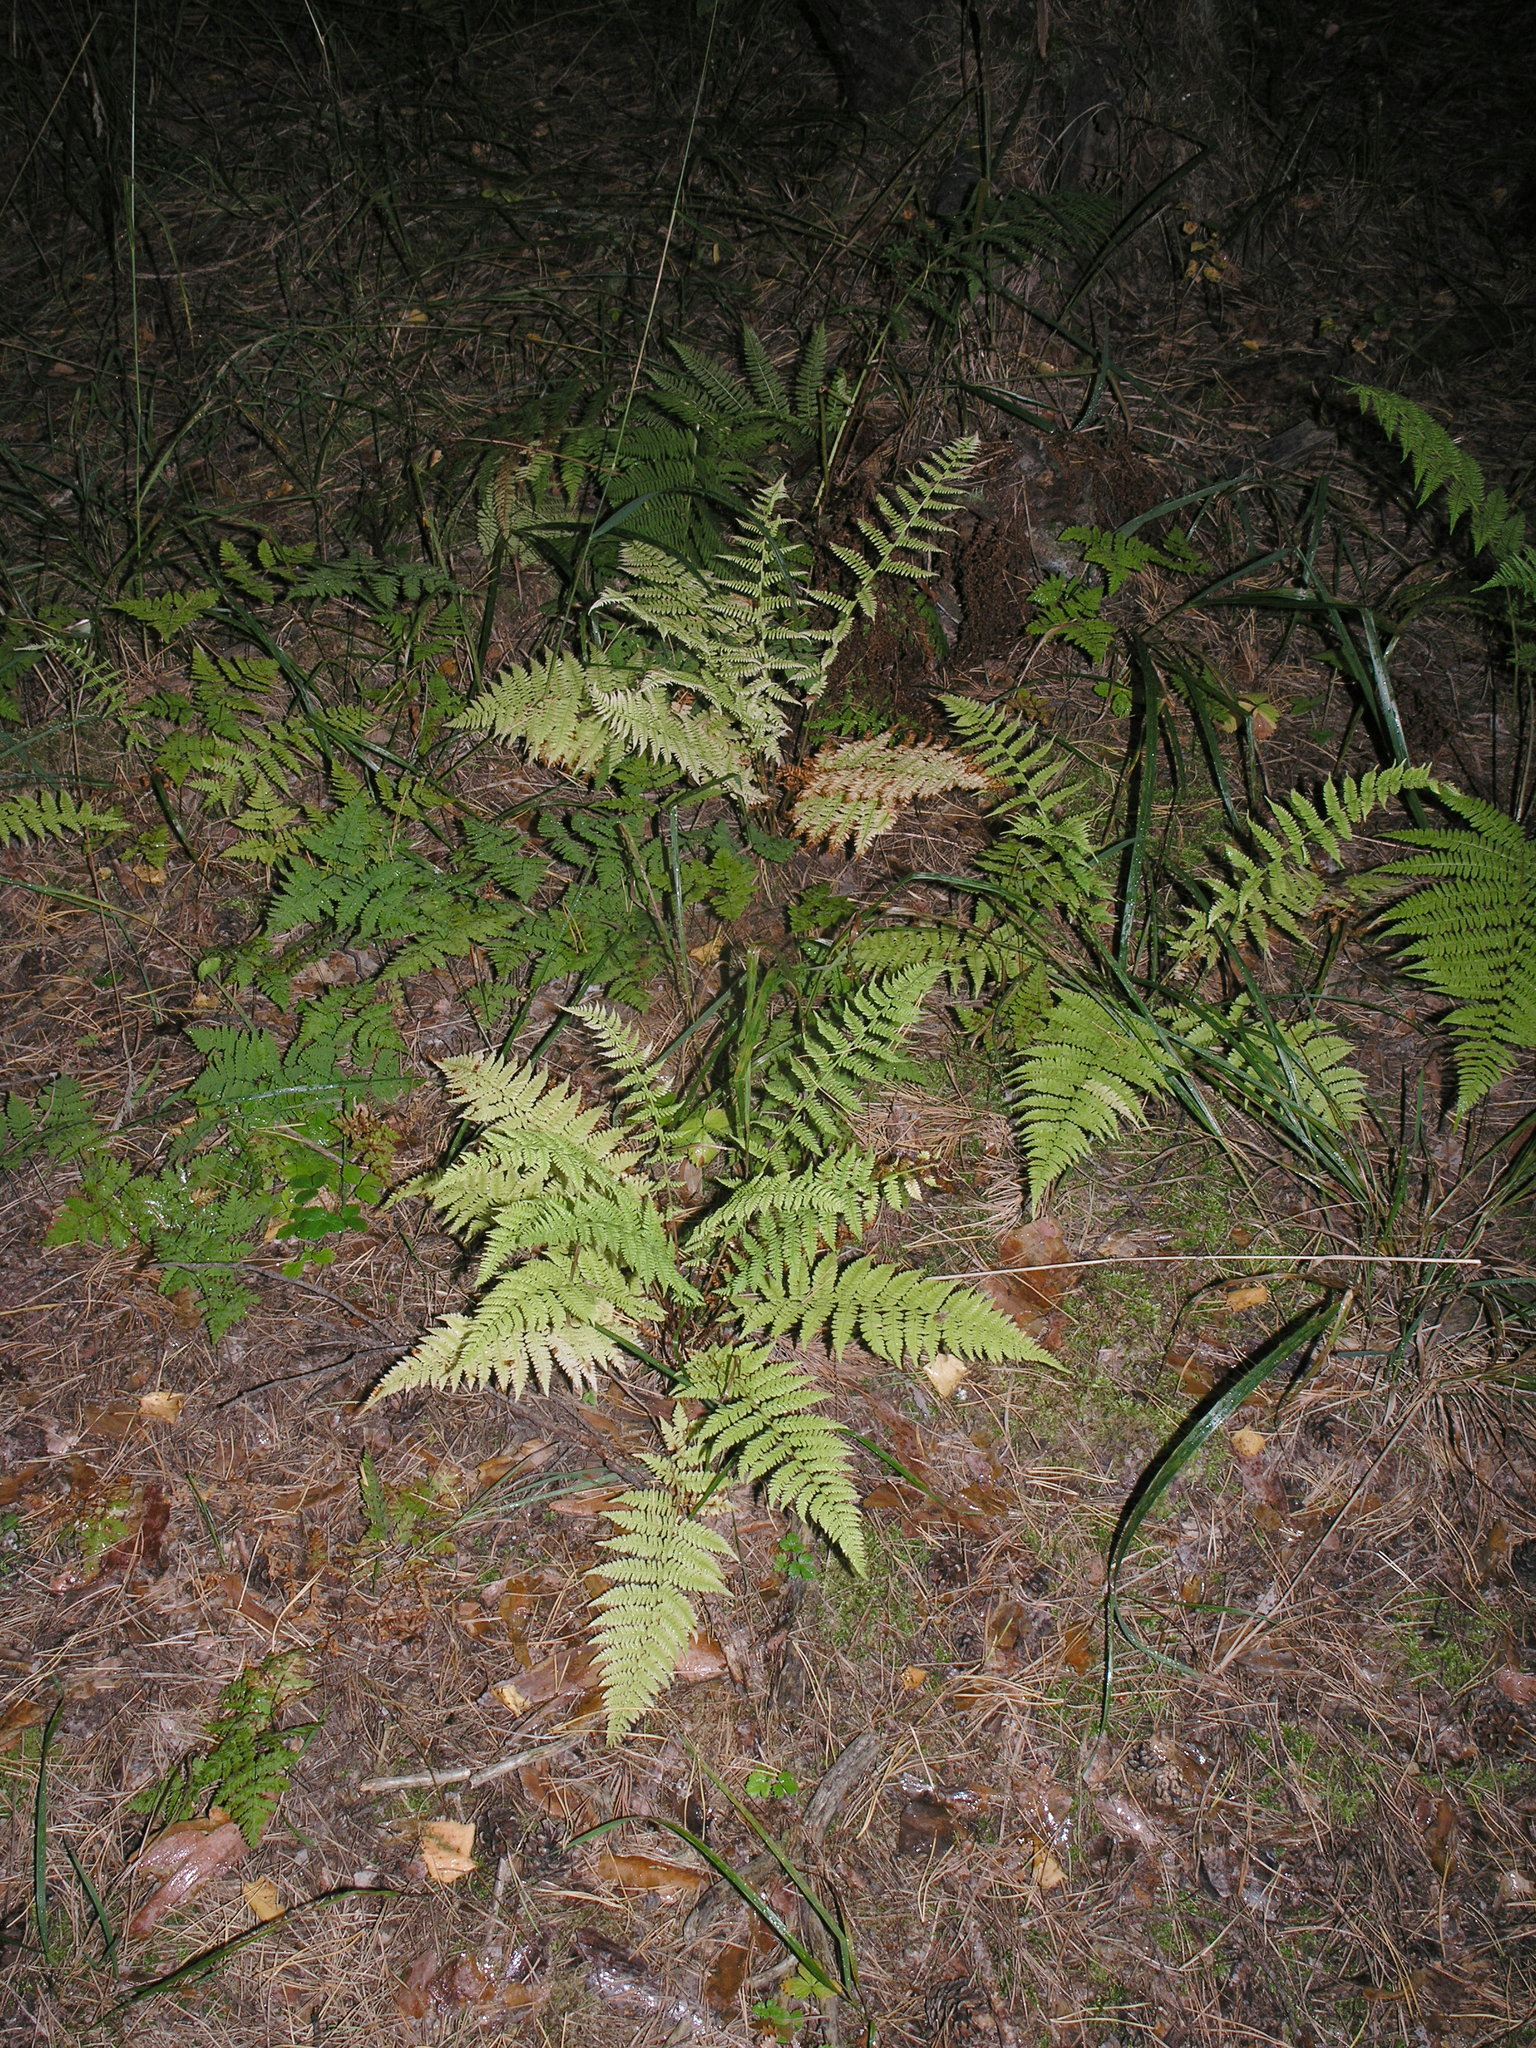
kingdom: Plantae
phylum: Tracheophyta
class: Polypodiopsida
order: Polypodiales
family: Athyriaceae
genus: Athyrium
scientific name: Athyrium filix-femina
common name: Lady fern
